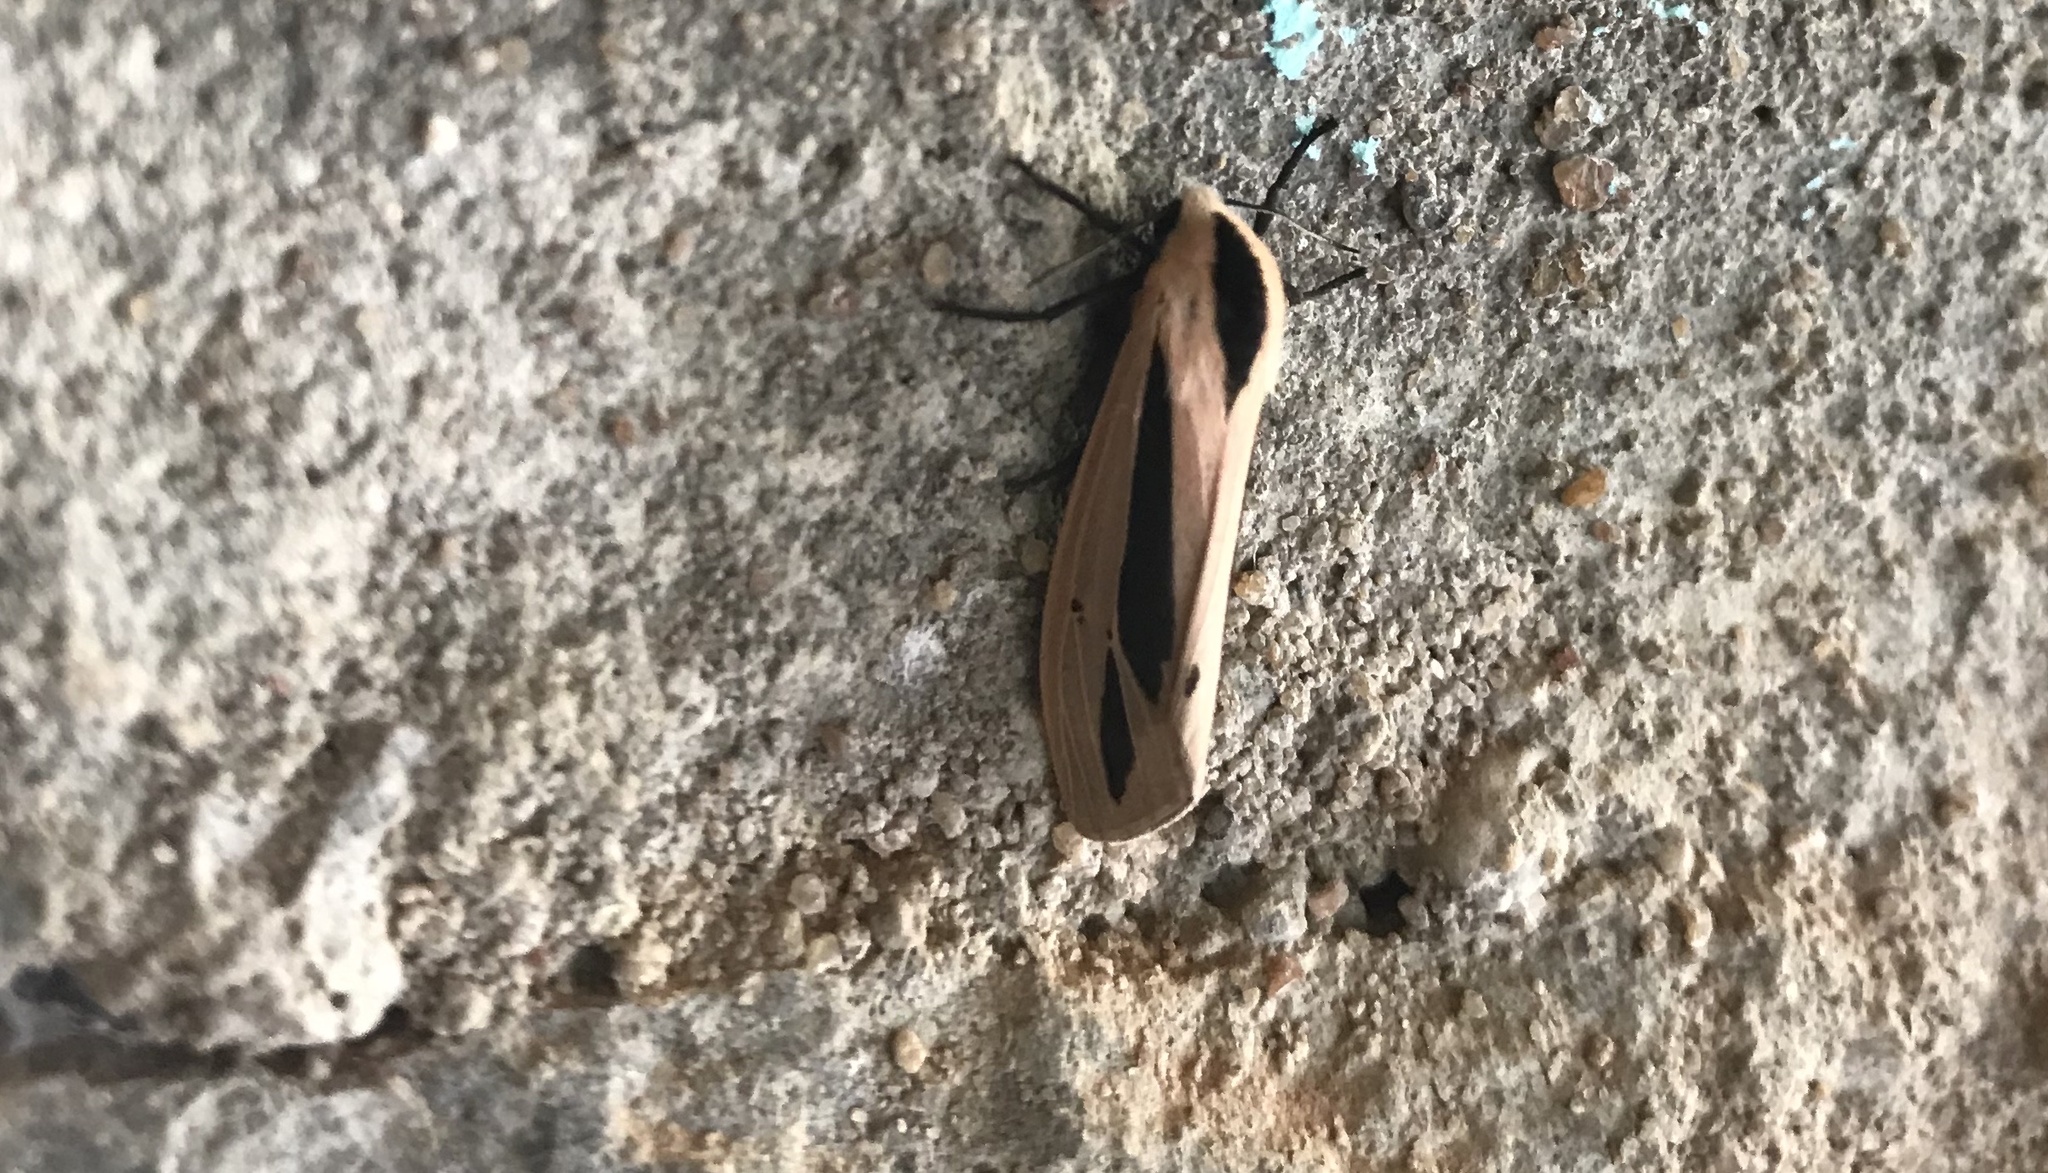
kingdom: Animalia
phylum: Arthropoda
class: Insecta
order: Lepidoptera
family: Erebidae
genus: Creatonotos
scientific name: Creatonotos
